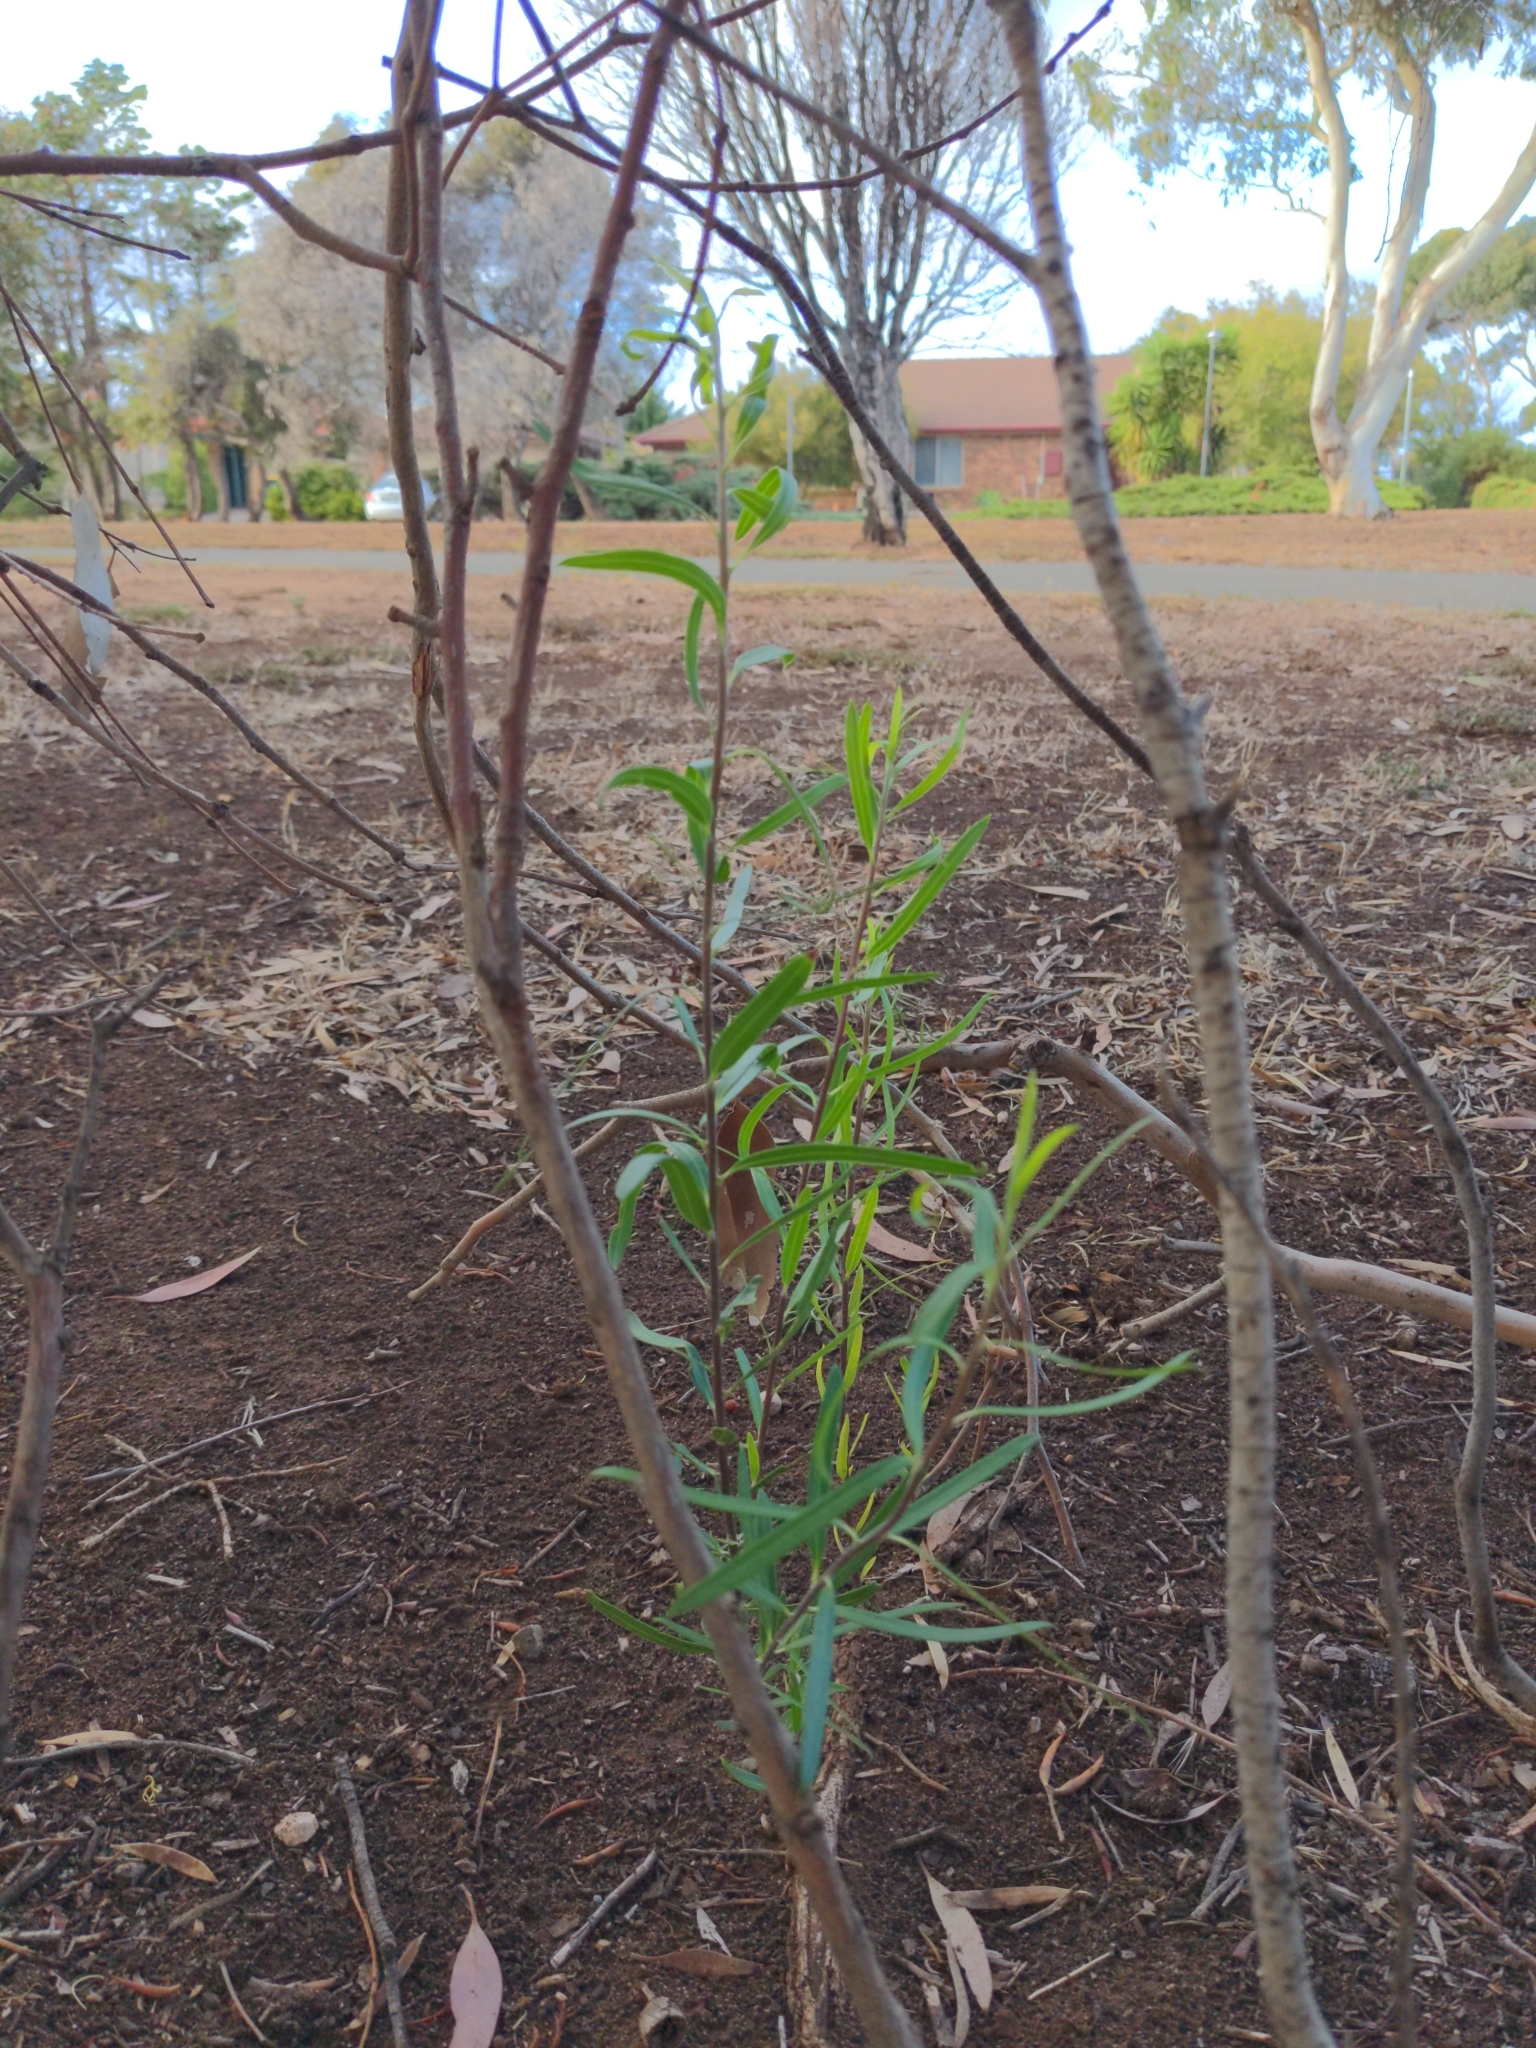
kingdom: Plantae
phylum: Tracheophyta
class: Magnoliopsida
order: Apiales
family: Pittosporaceae
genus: Pittosporum
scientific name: Pittosporum angustifolium
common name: Weeping pittosporum
